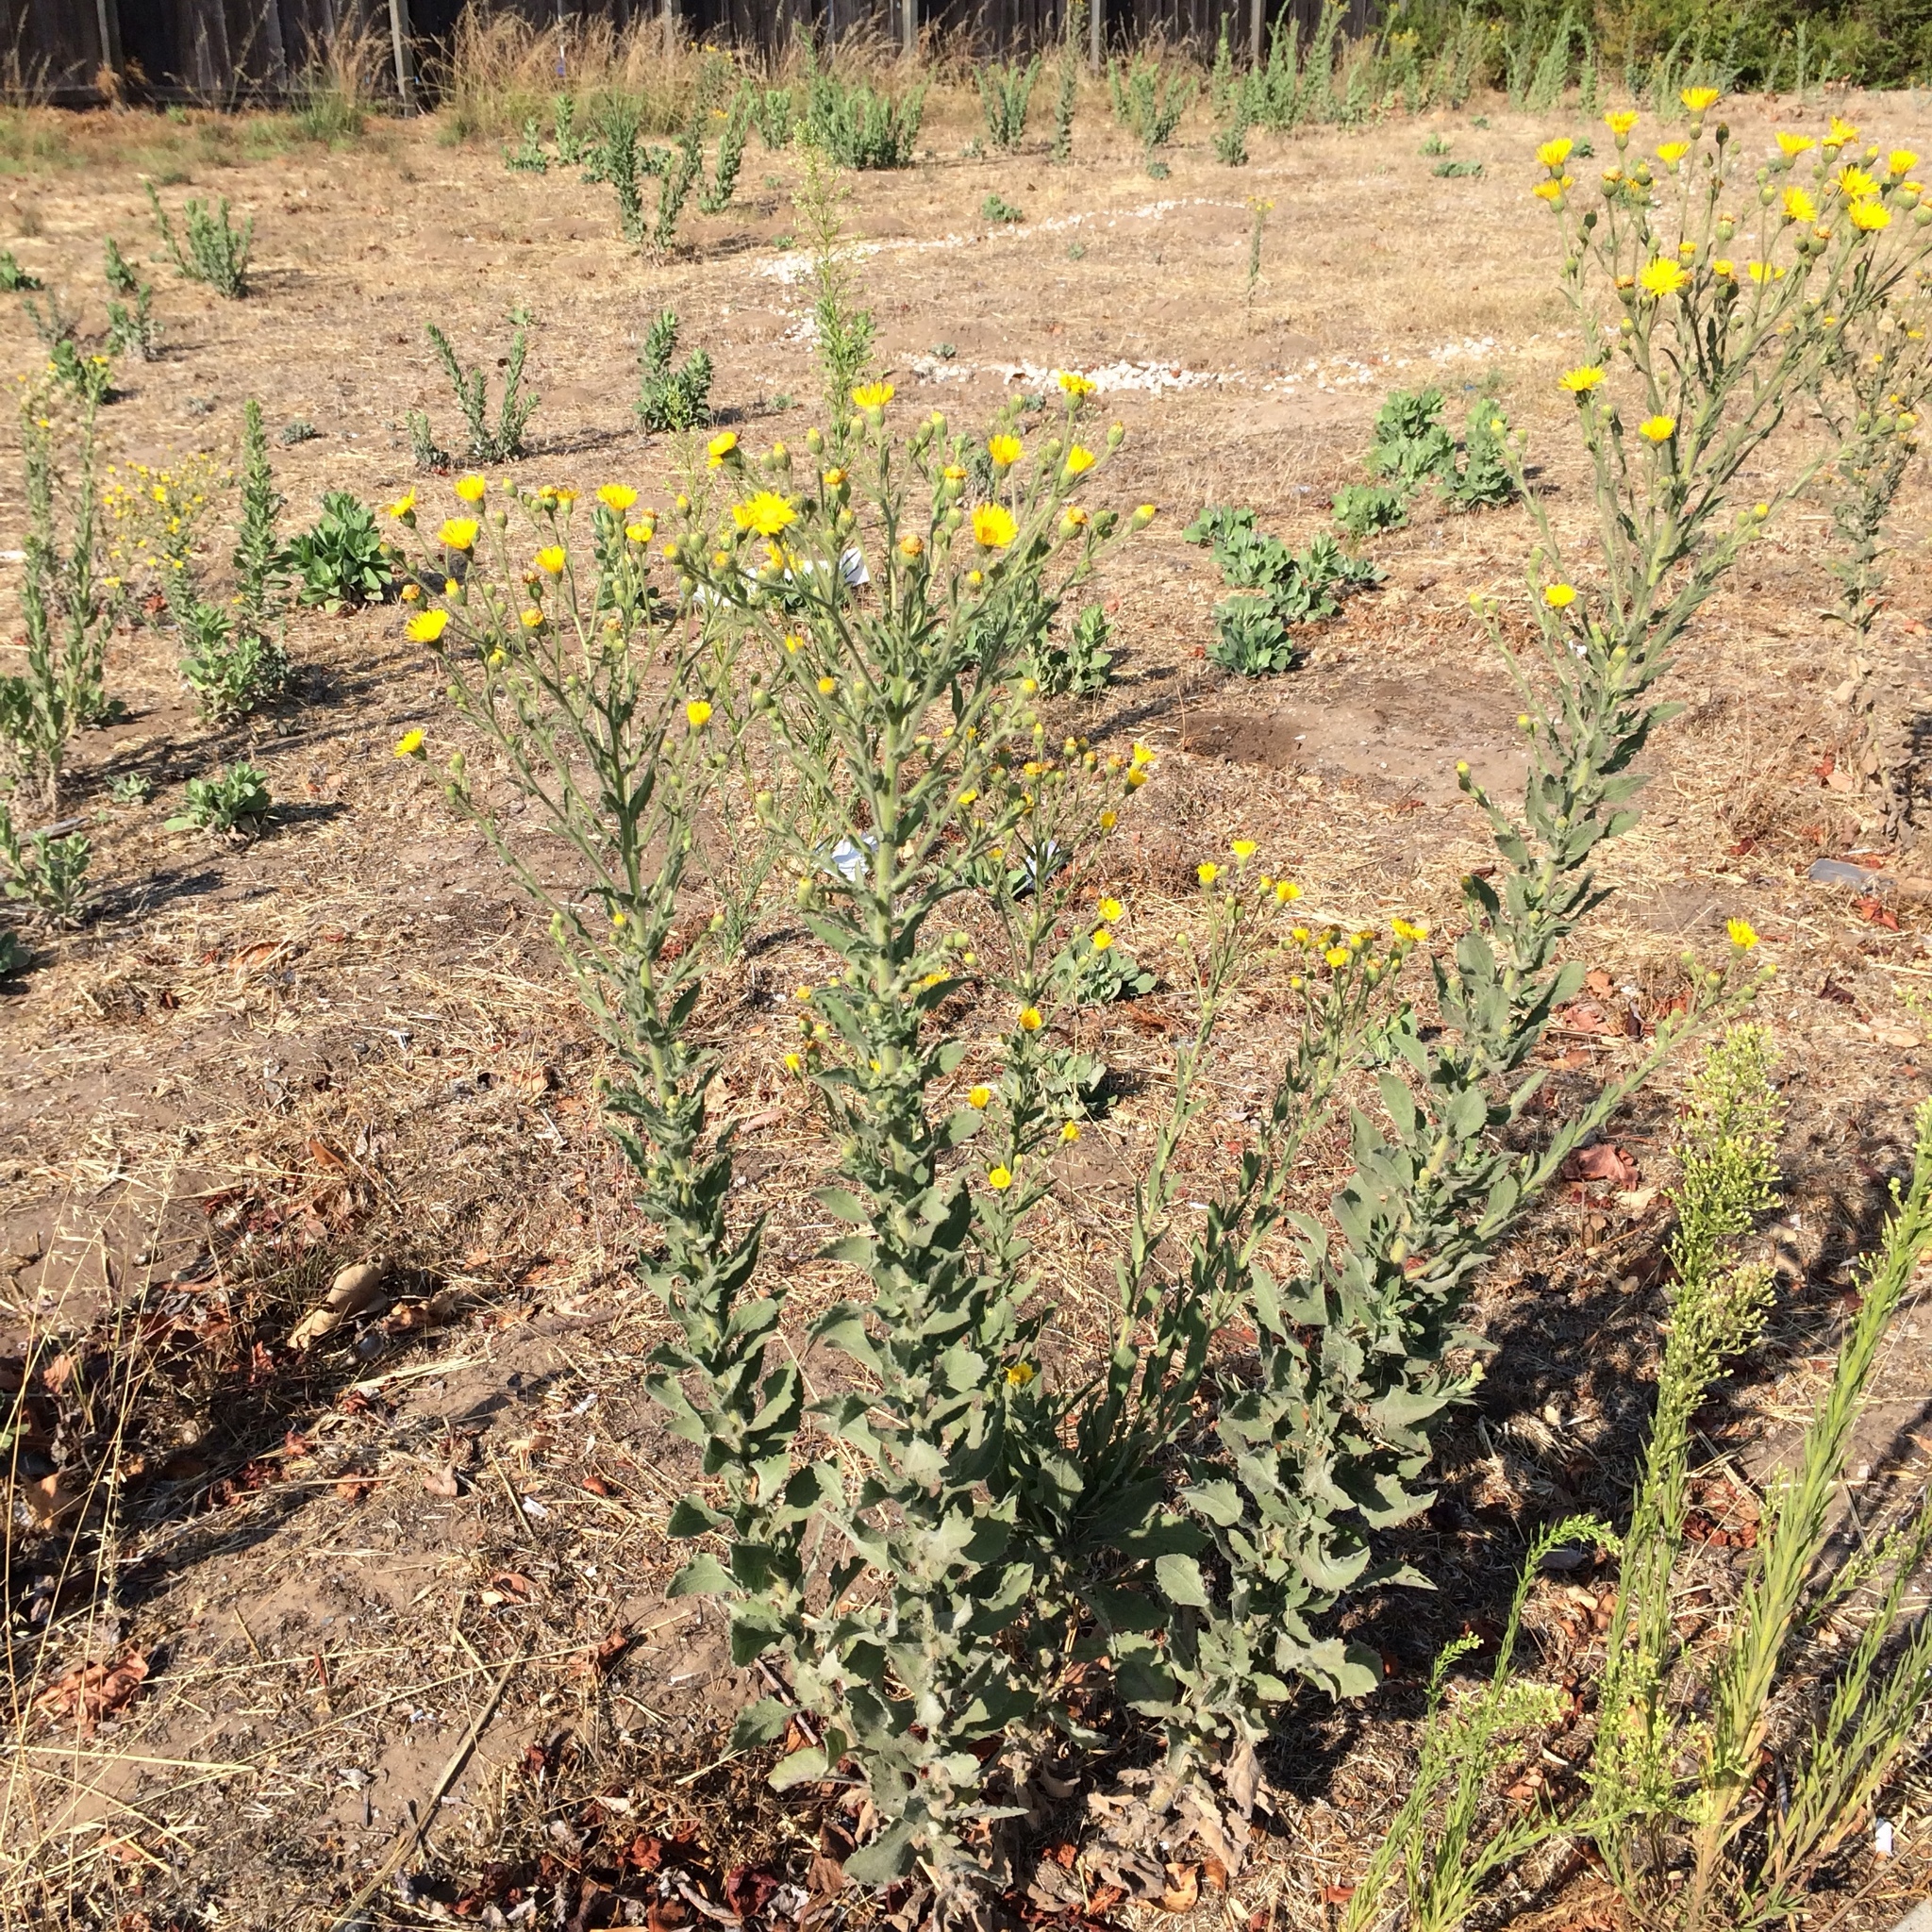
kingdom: Plantae
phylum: Tracheophyta
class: Magnoliopsida
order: Asterales
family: Asteraceae
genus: Heterotheca
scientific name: Heterotheca grandiflora
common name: Telegraphweed
